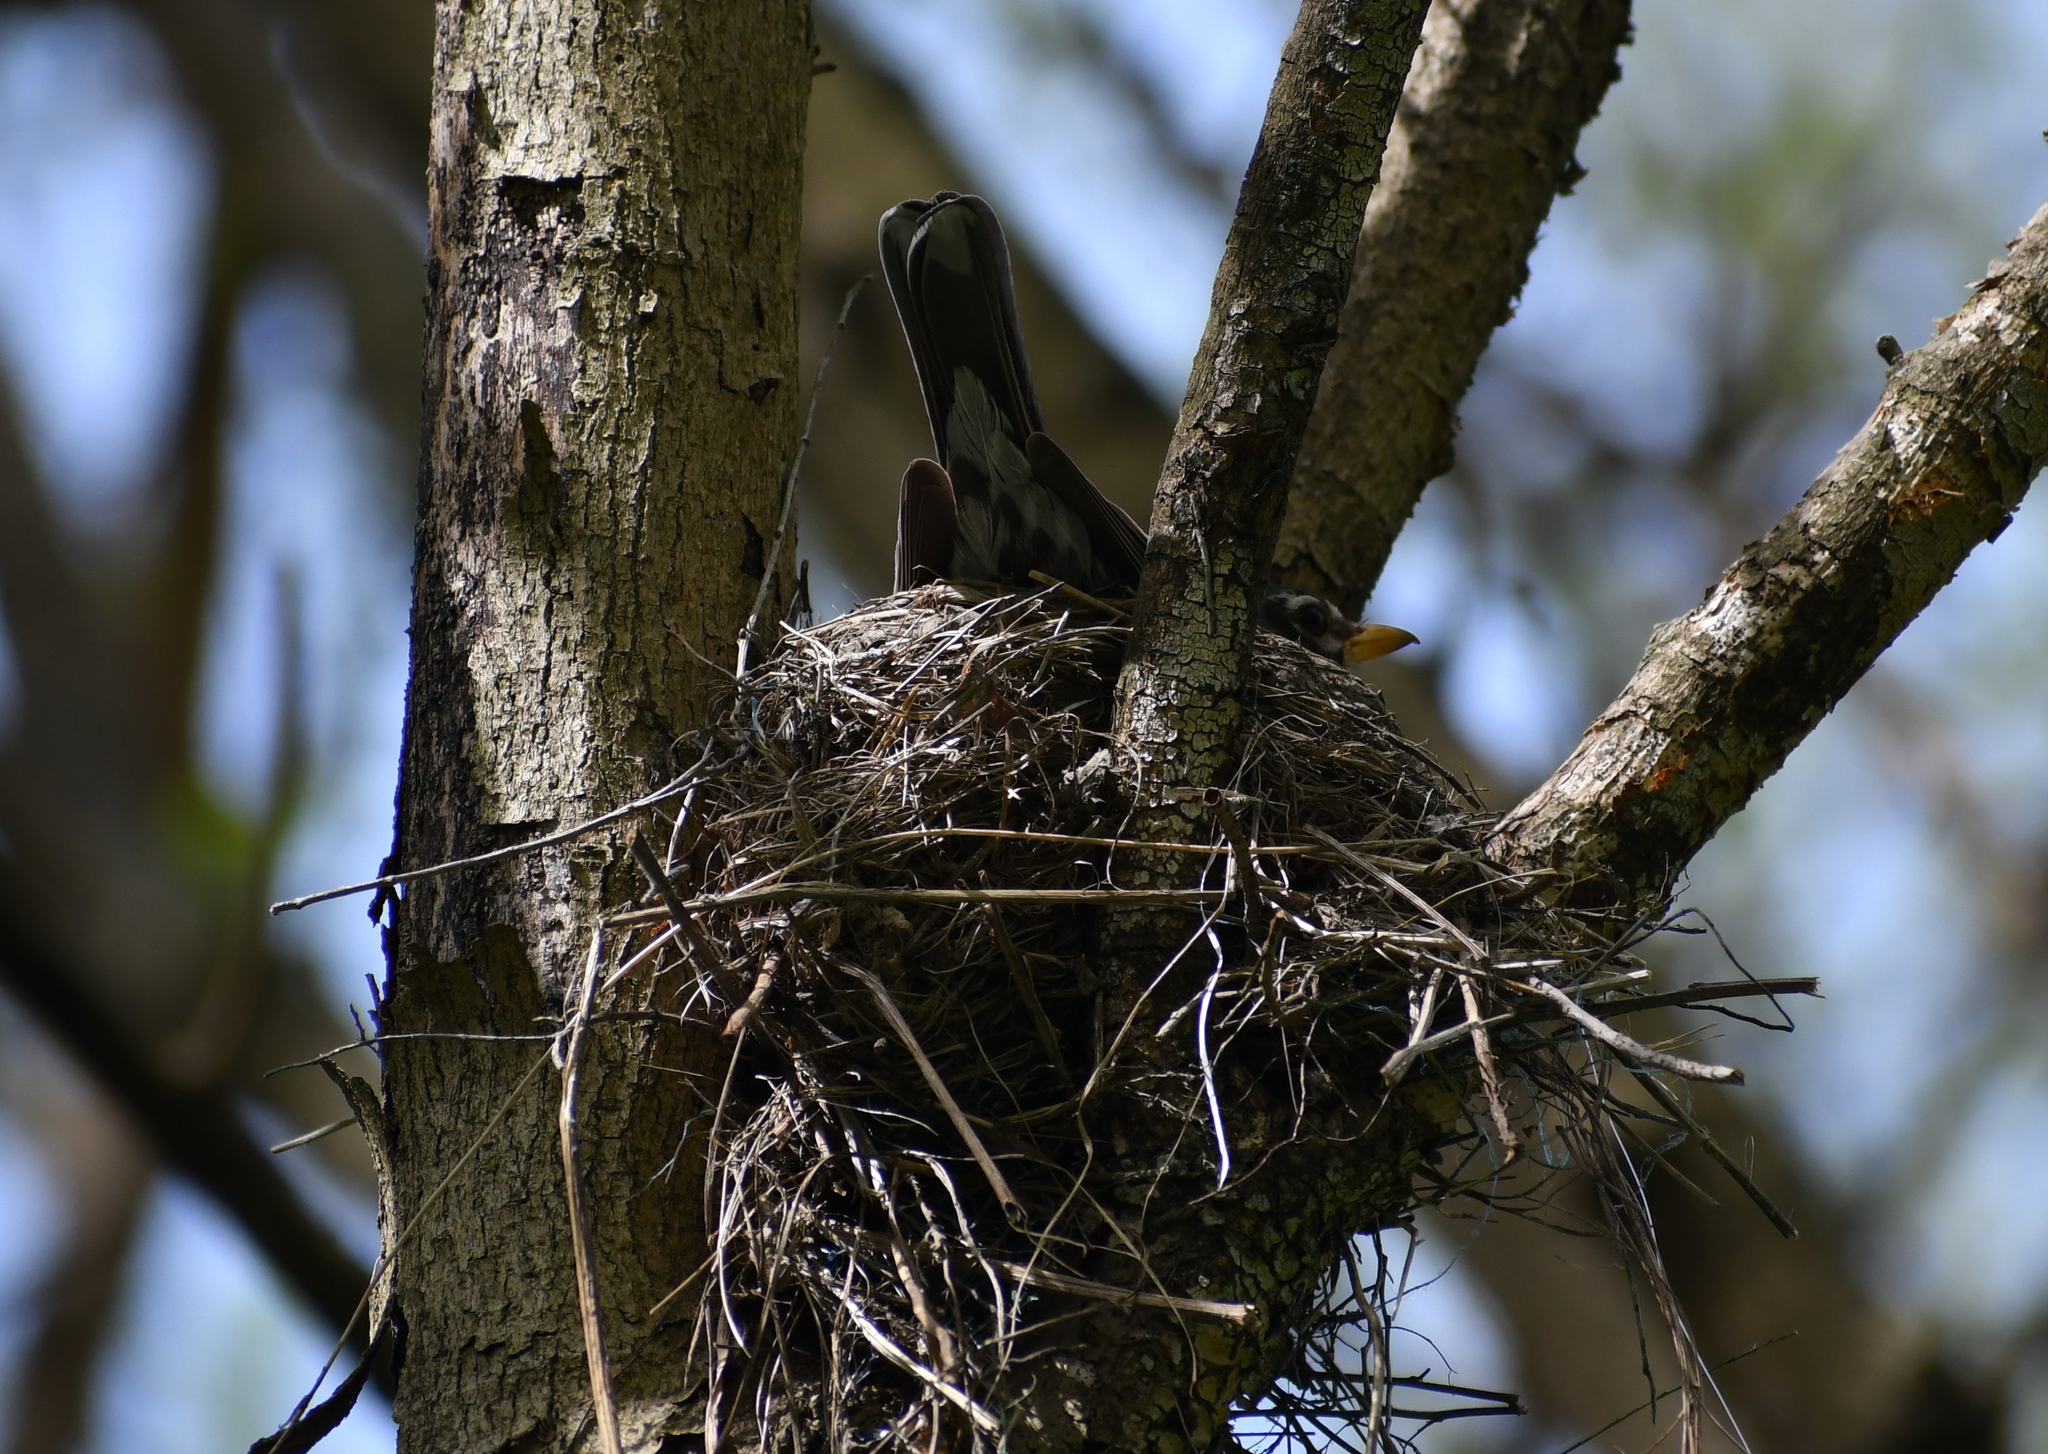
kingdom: Animalia
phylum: Chordata
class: Aves
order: Passeriformes
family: Turdidae
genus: Turdus
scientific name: Turdus migratorius
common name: American robin
